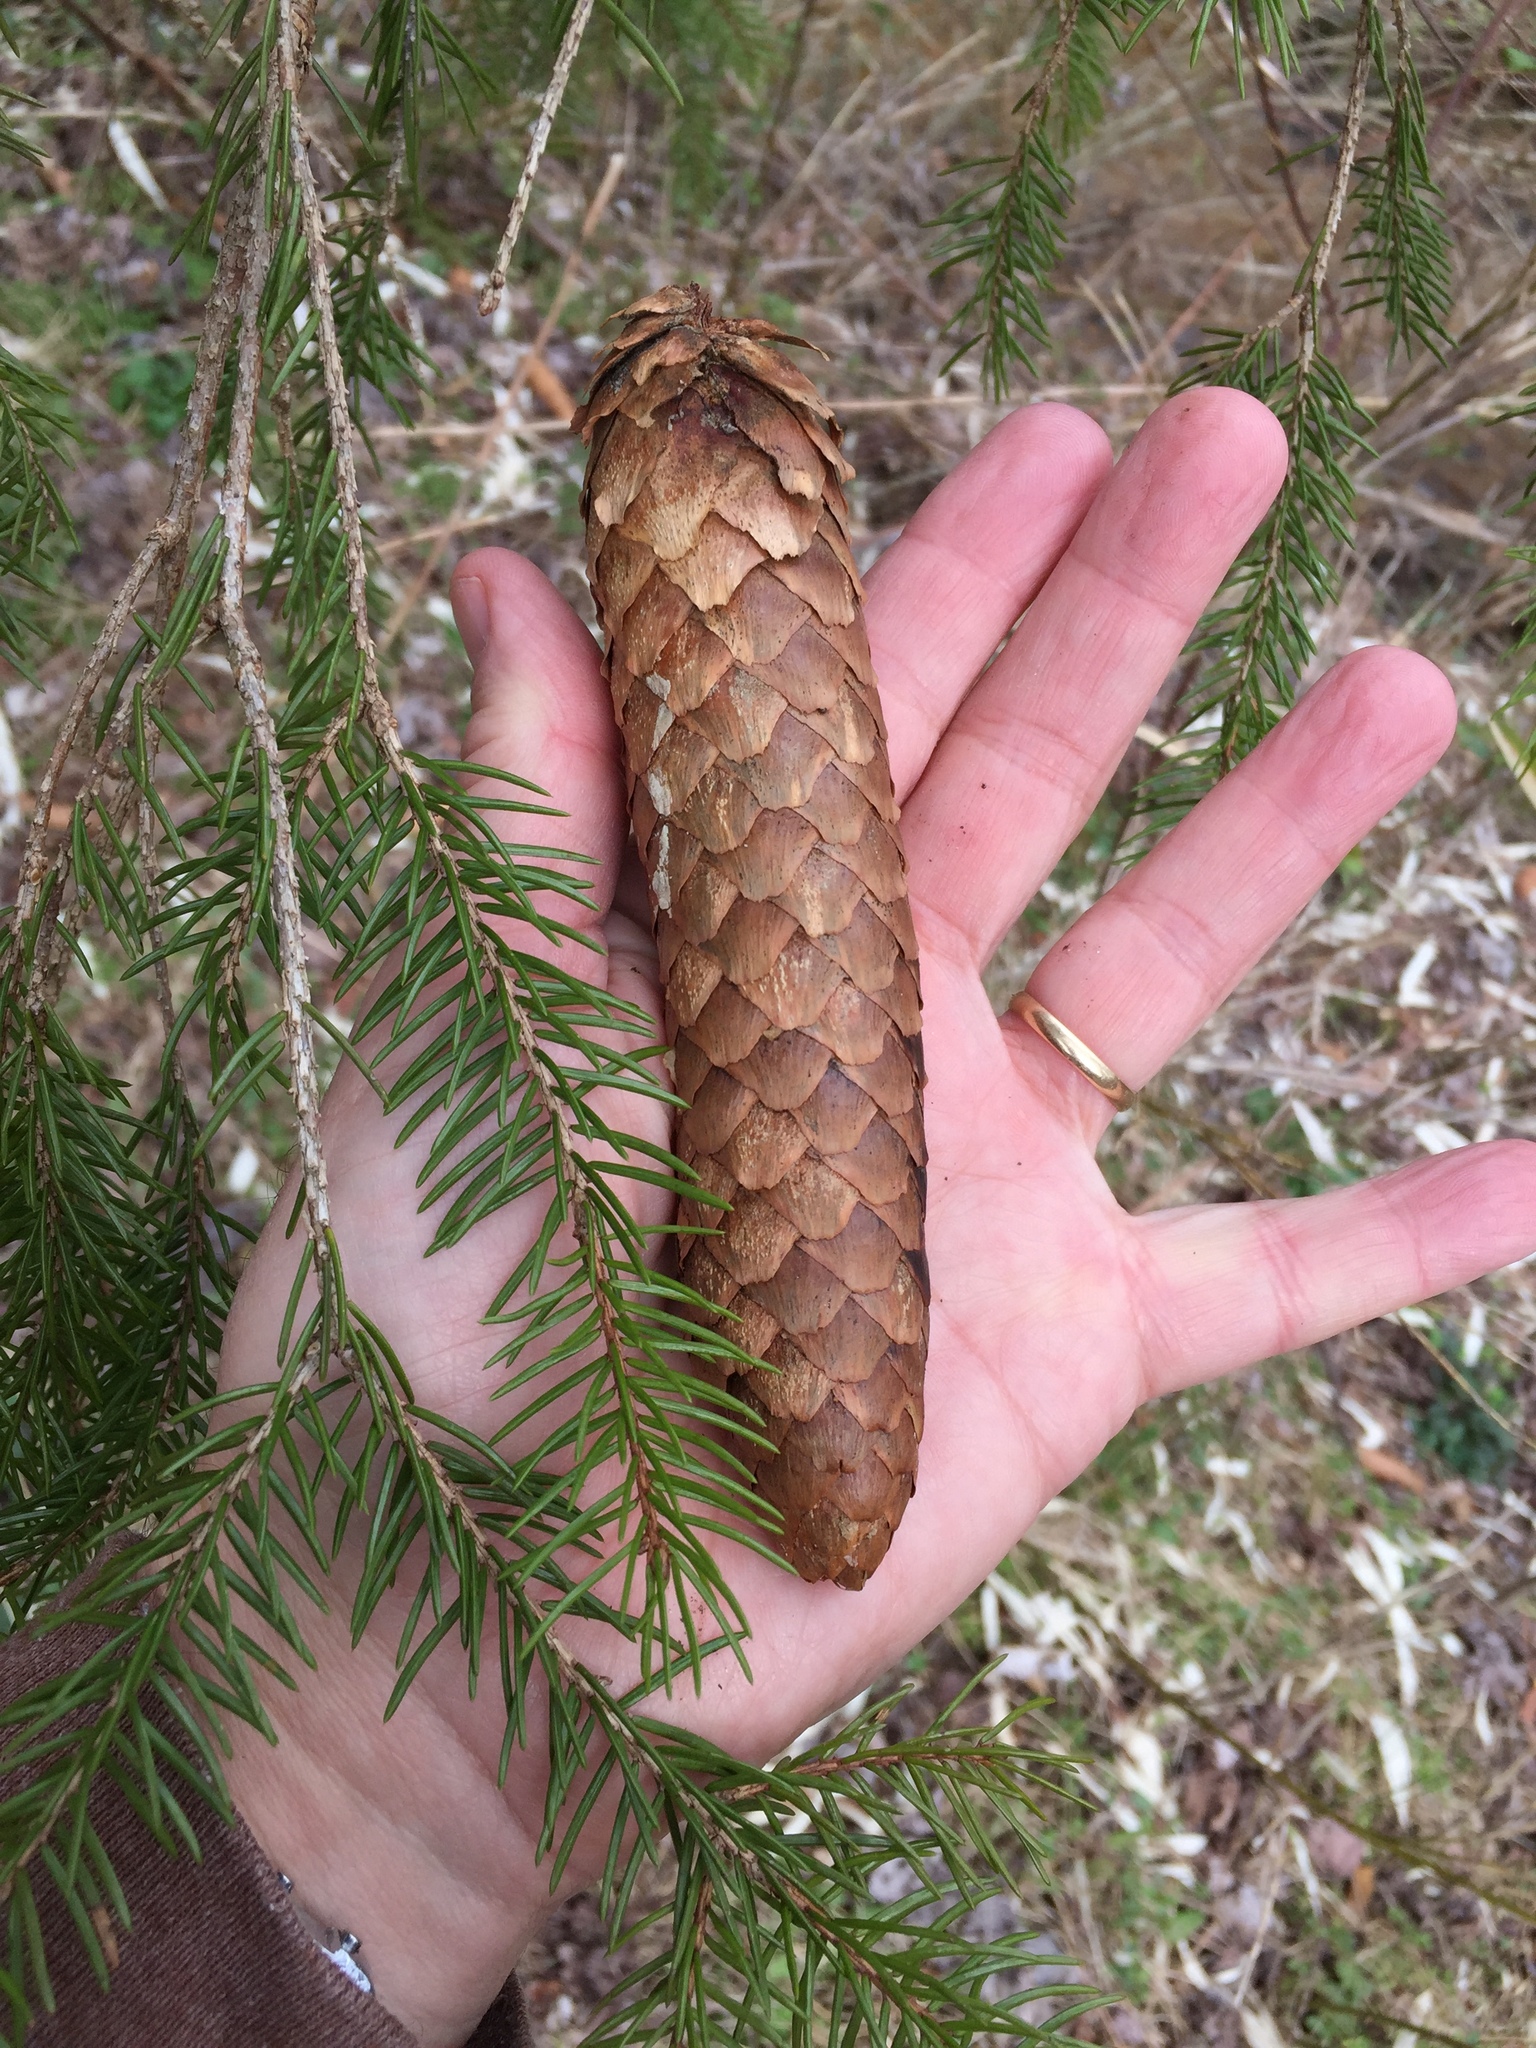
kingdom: Plantae
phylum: Tracheophyta
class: Pinopsida
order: Pinales
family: Pinaceae
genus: Picea
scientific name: Picea abies
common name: Norway spruce
